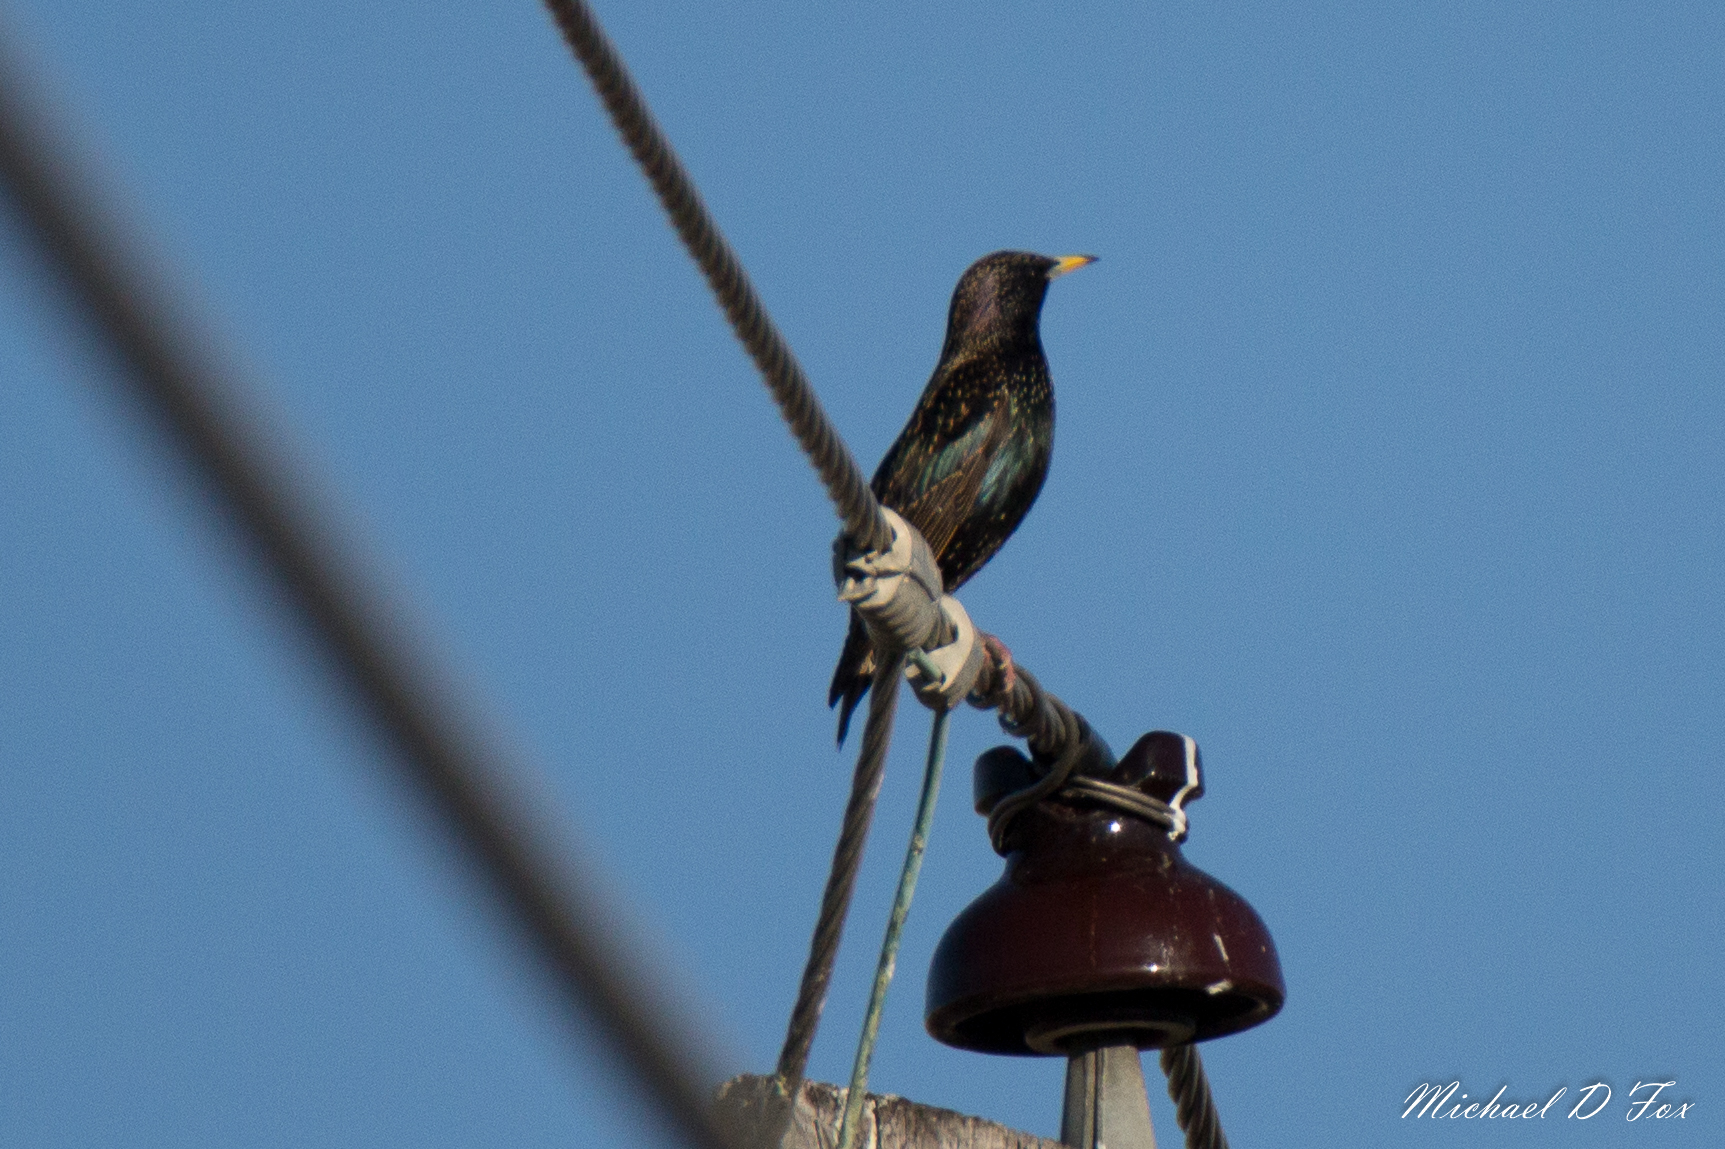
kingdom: Animalia
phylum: Chordata
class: Aves
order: Passeriformes
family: Sturnidae
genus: Sturnus
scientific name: Sturnus vulgaris
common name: Common starling
